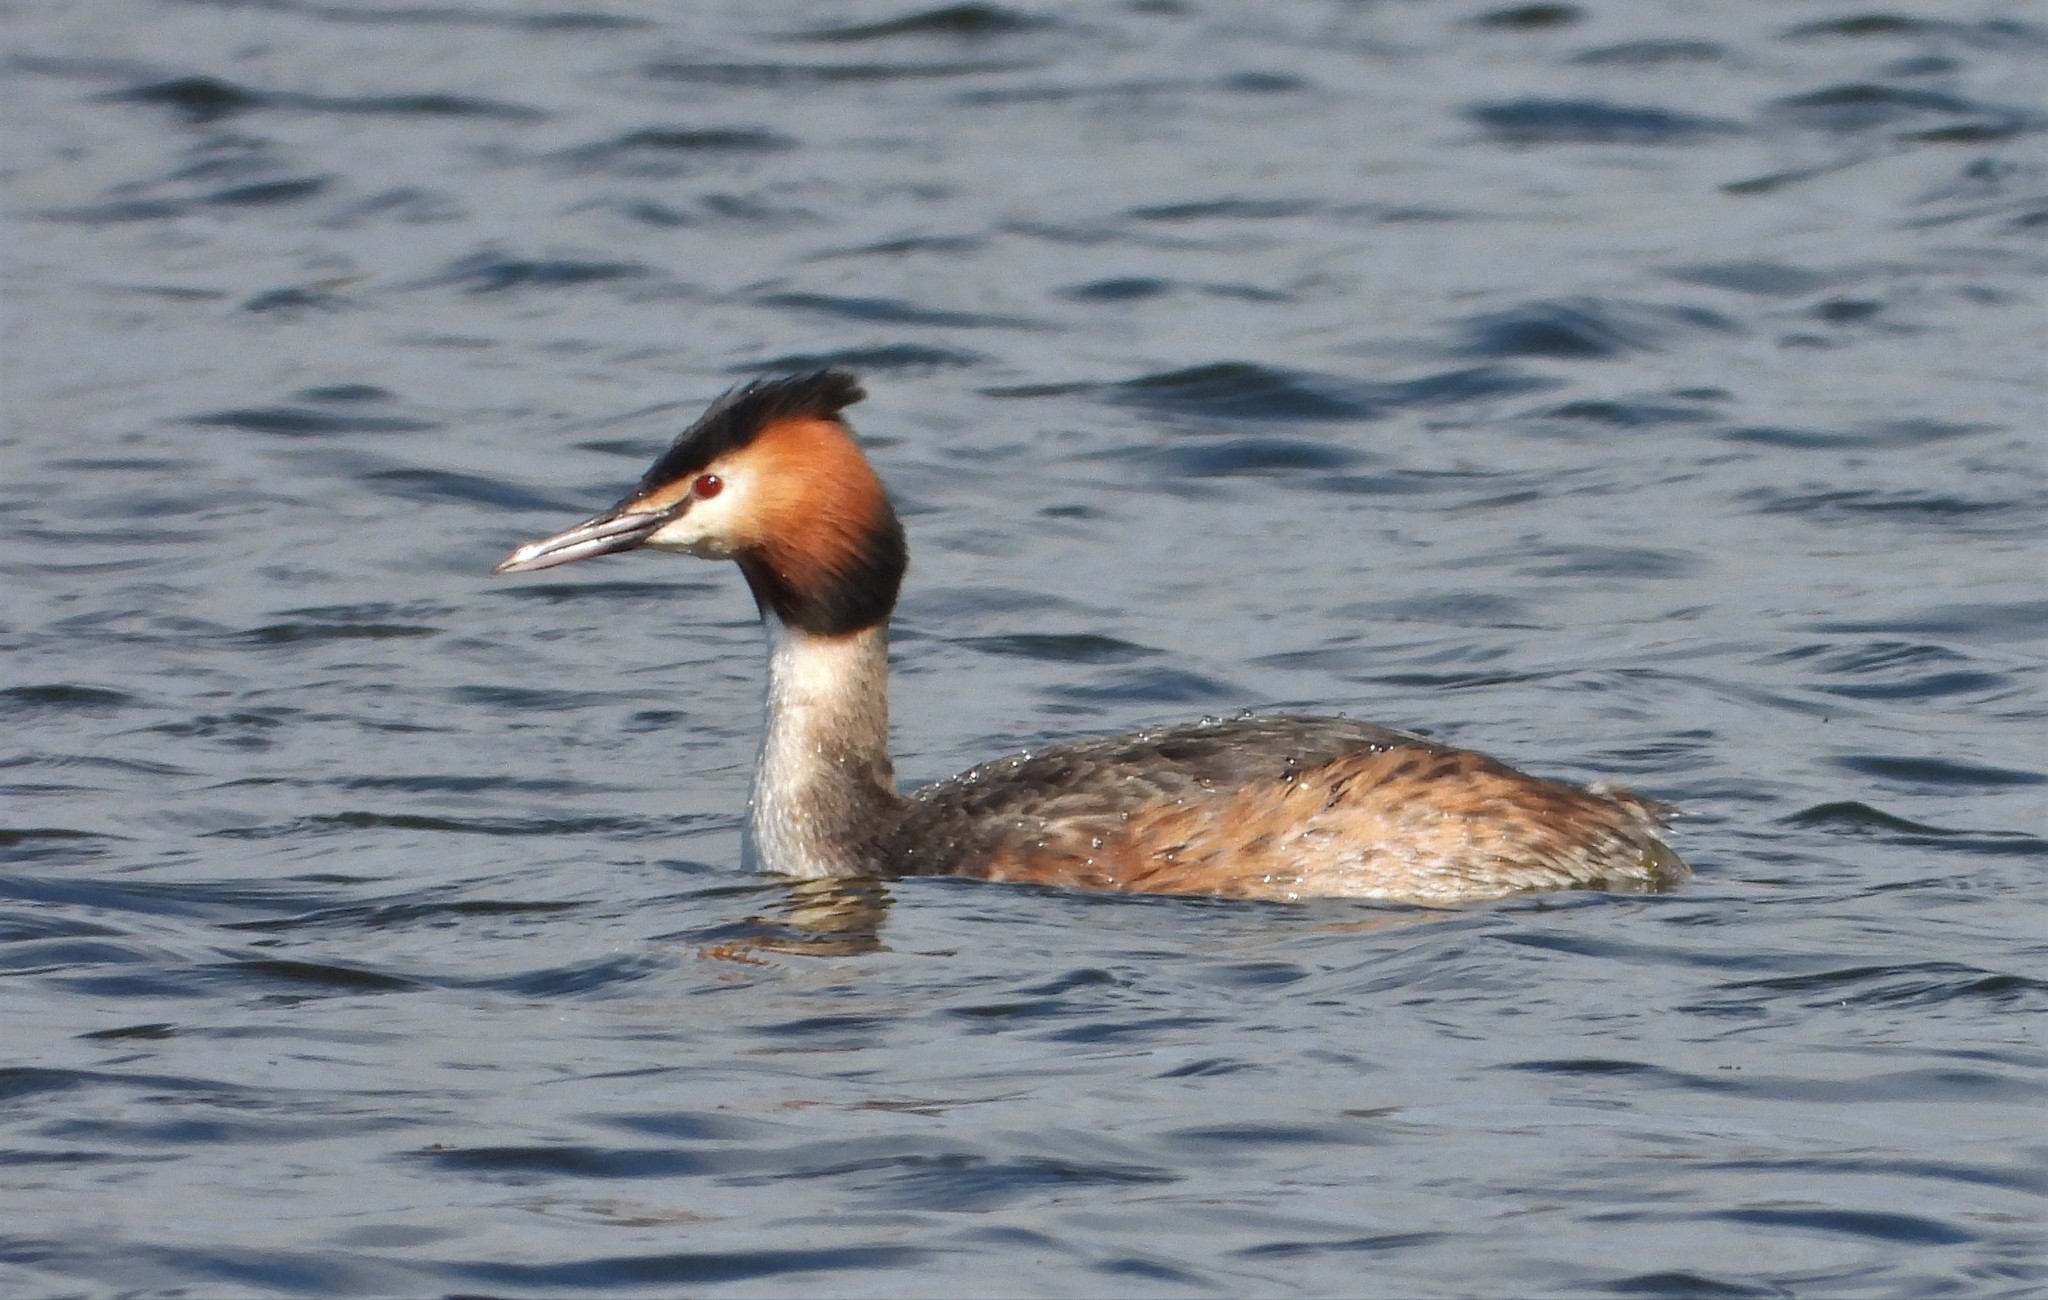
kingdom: Animalia
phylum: Chordata
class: Aves
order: Podicipediformes
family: Podicipedidae
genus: Podiceps
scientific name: Podiceps cristatus
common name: Great crested grebe
